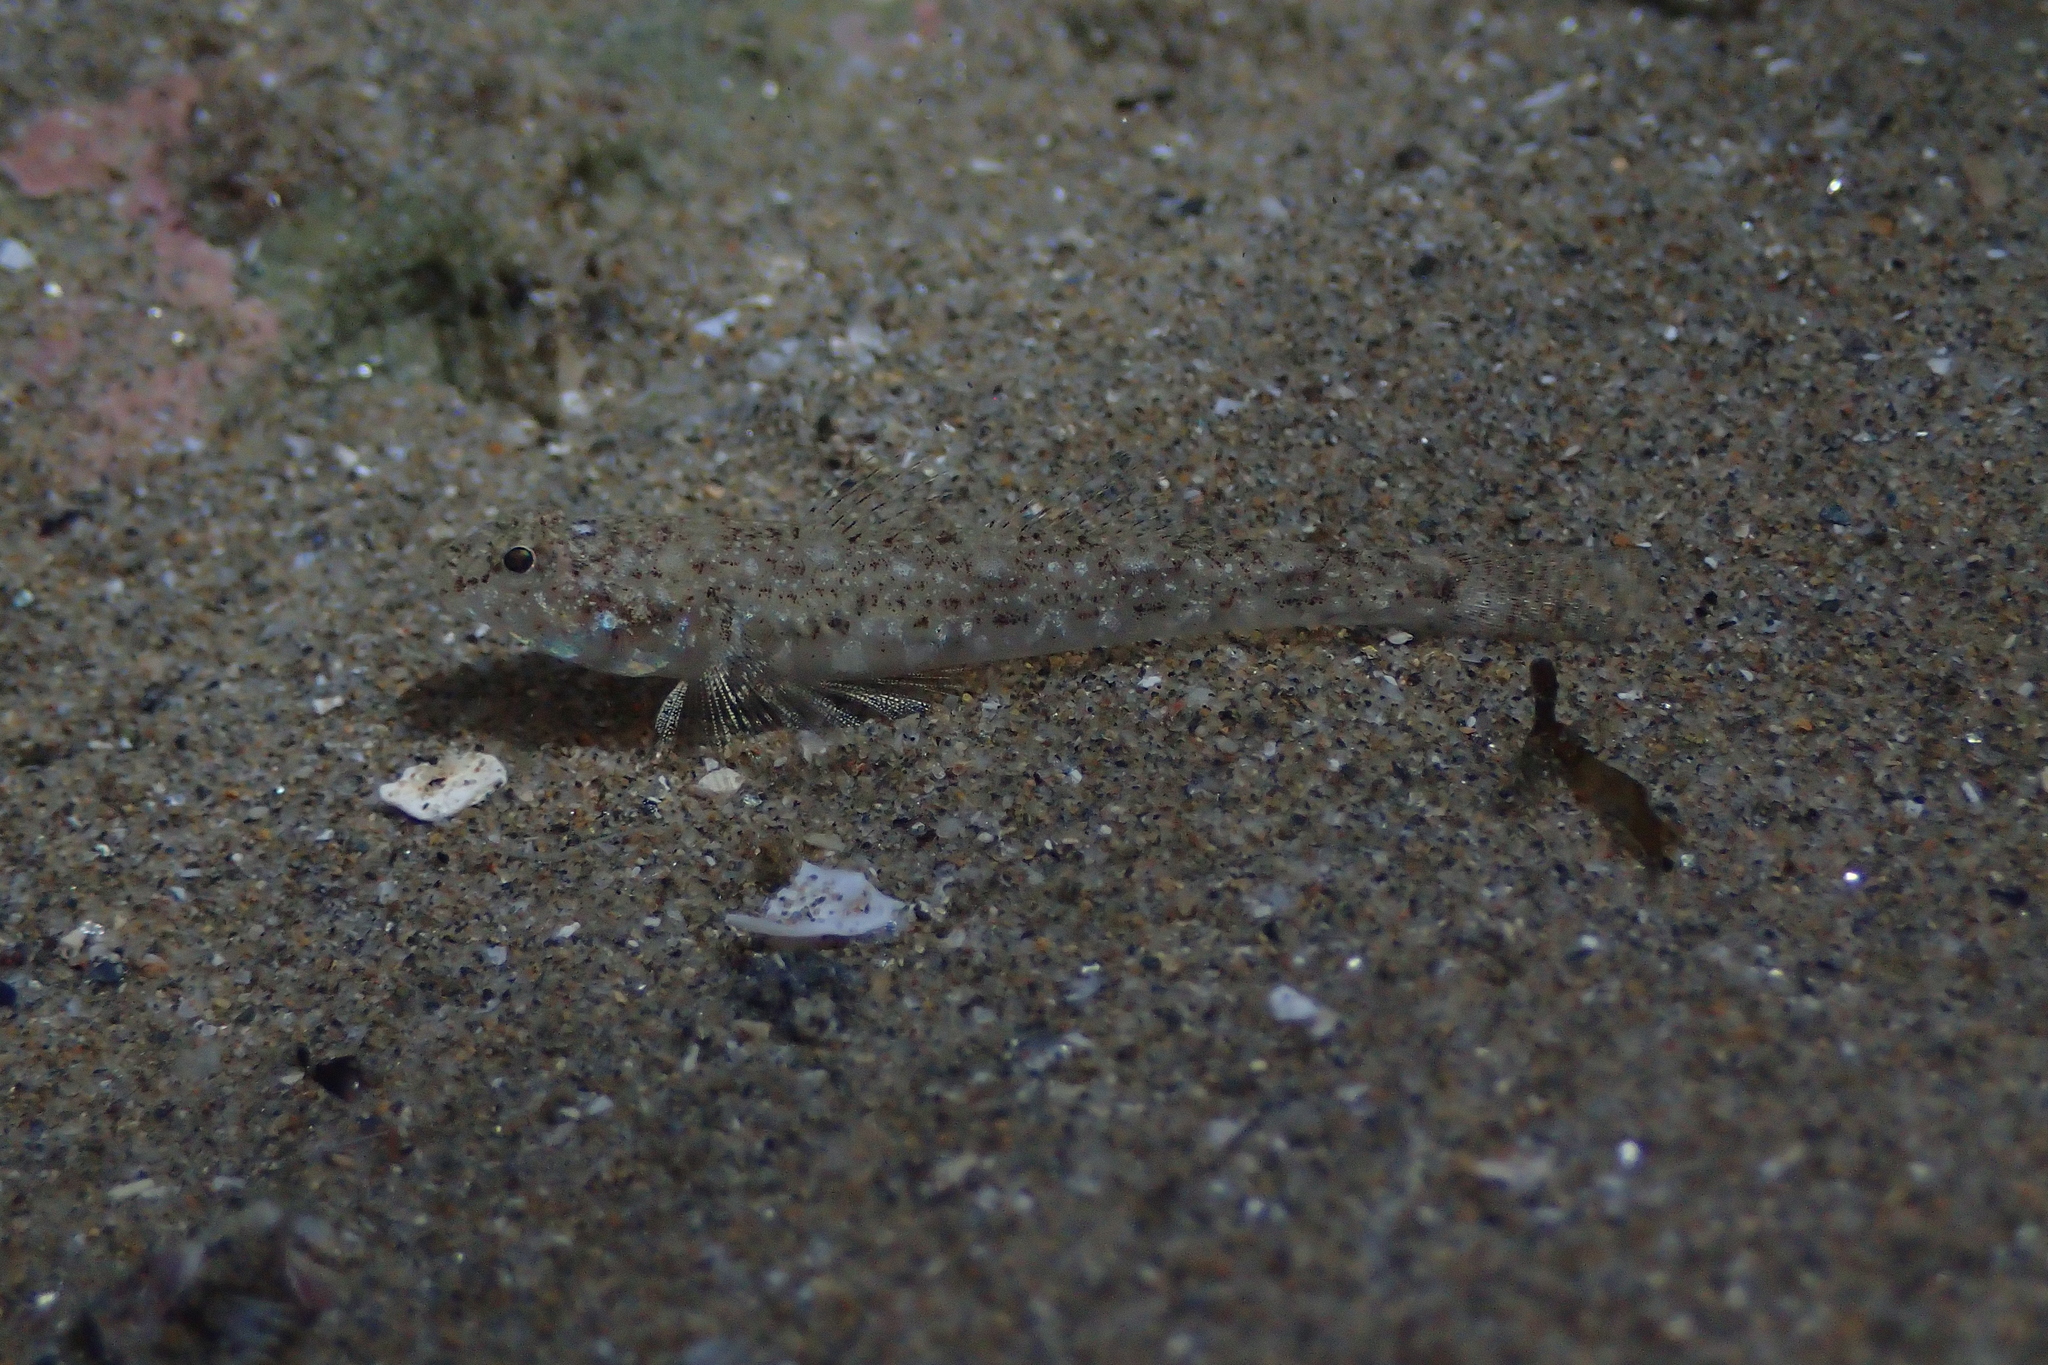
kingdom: Animalia
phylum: Chordata
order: Perciformes
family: Gobiidae
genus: Pomatoschistus
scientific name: Pomatoschistus marmoratus
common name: Marbled goby
